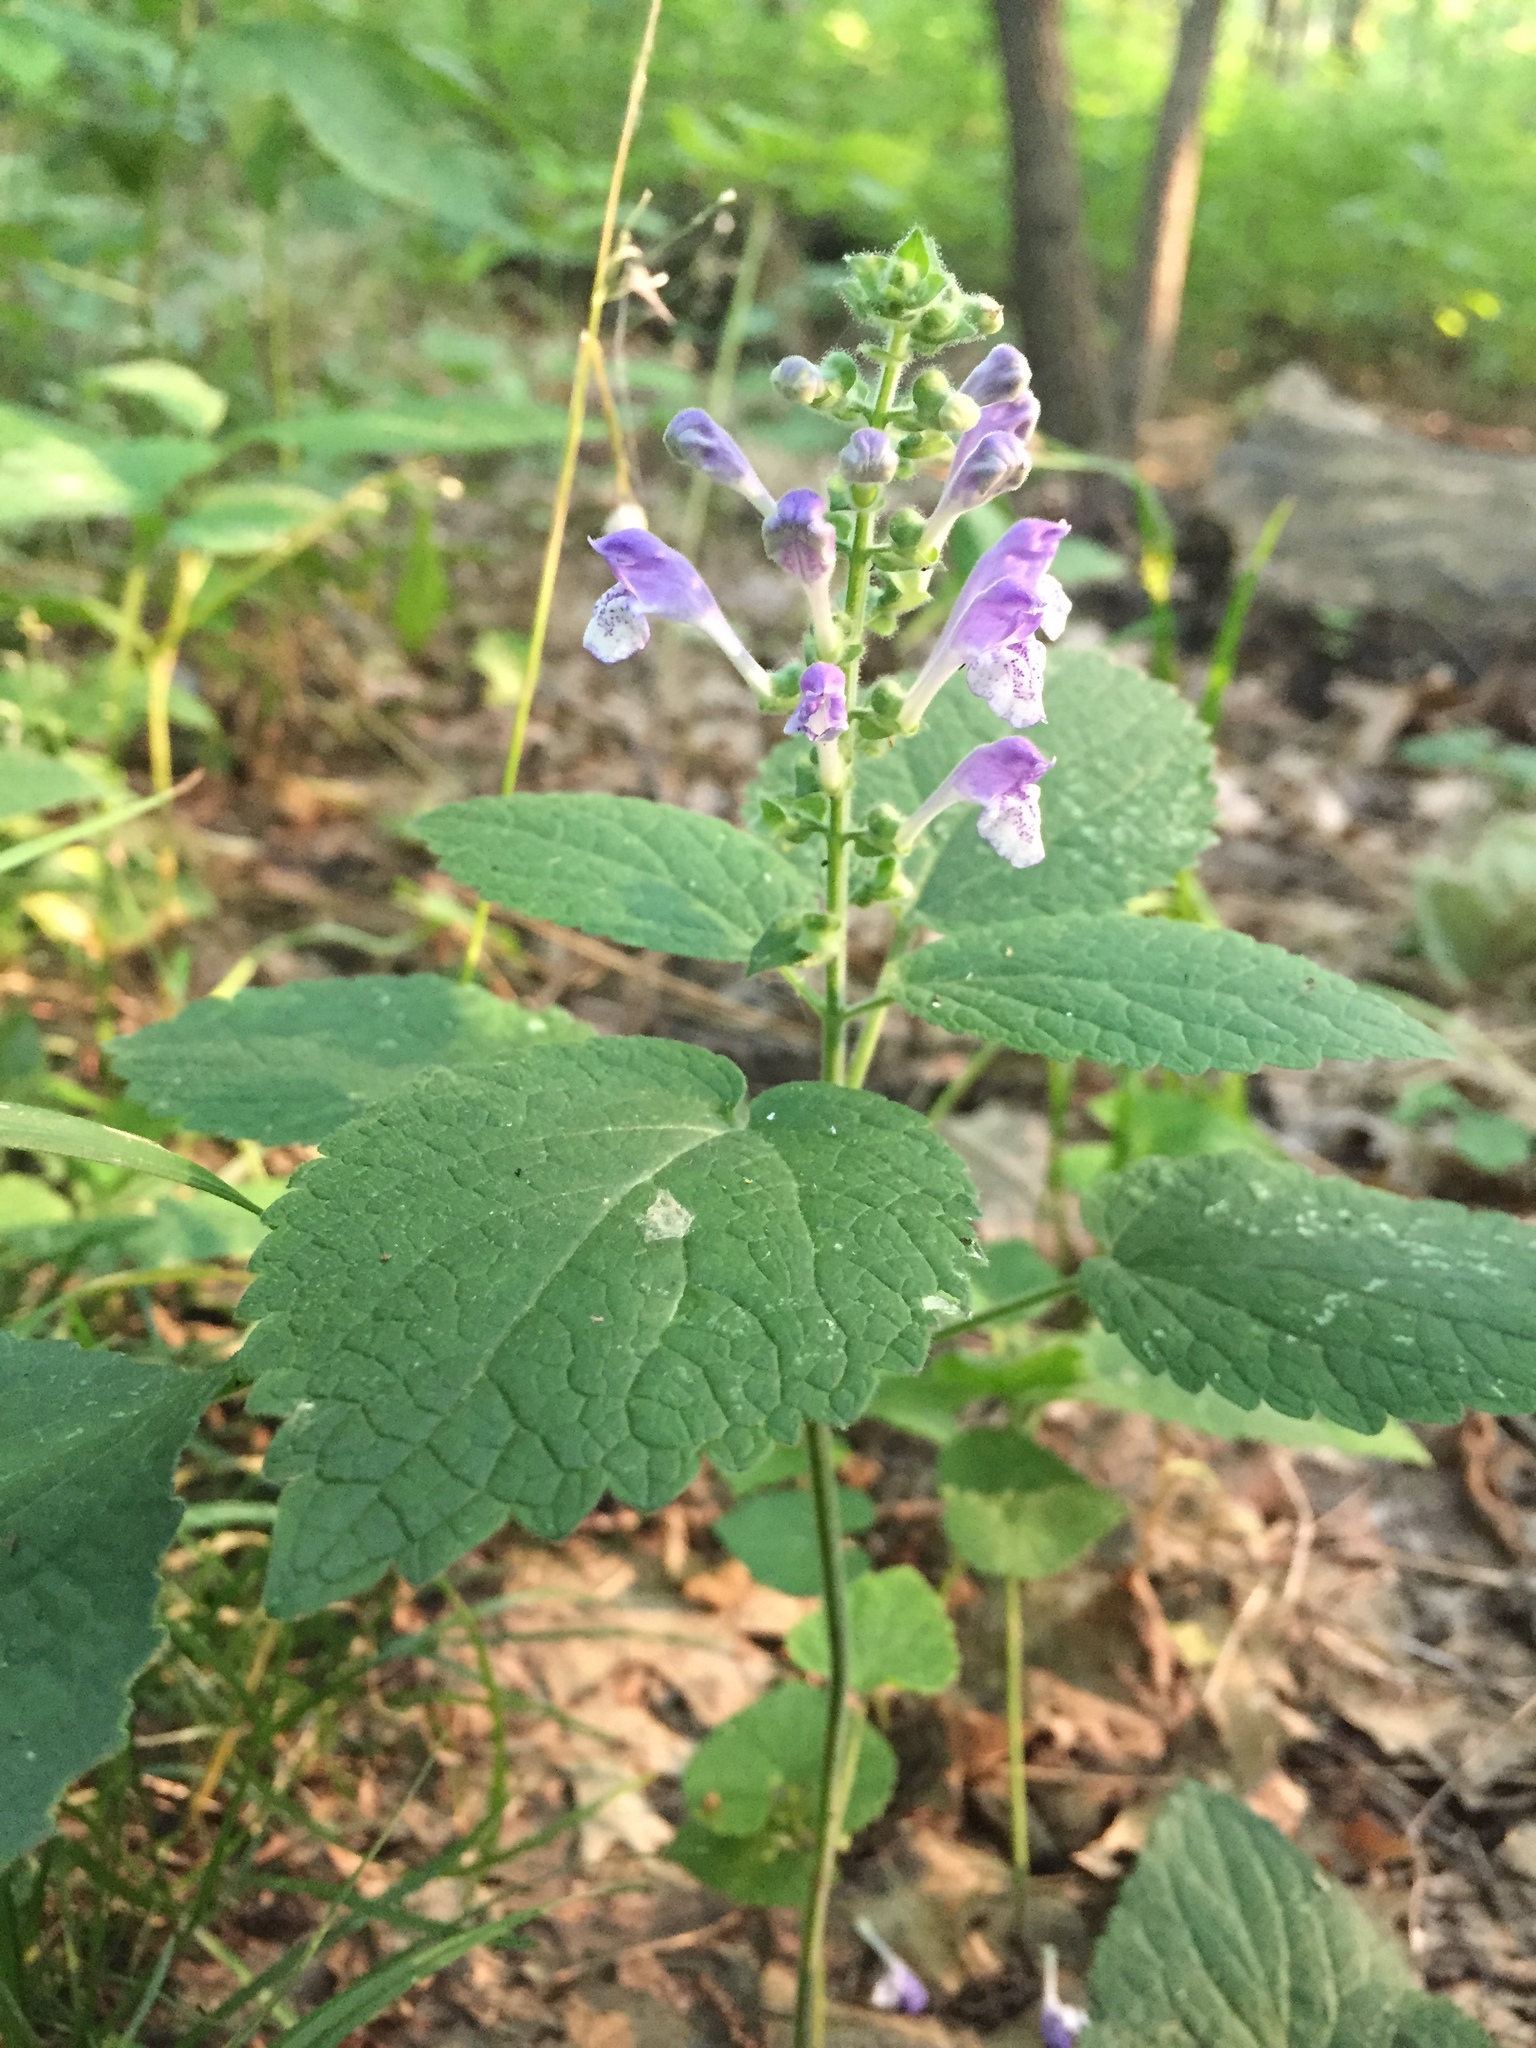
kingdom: Plantae
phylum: Tracheophyta
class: Magnoliopsida
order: Lamiales
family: Lamiaceae
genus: Scutellaria
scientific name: Scutellaria ovata
